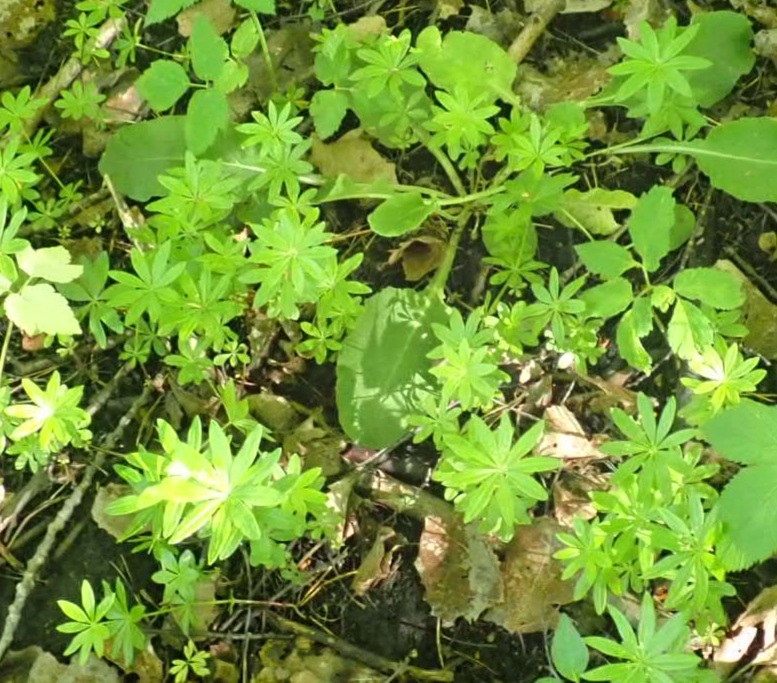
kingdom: Plantae
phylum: Tracheophyta
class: Magnoliopsida
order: Gentianales
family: Rubiaceae
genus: Galium
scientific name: Galium odoratum
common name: Sweet woodruff
